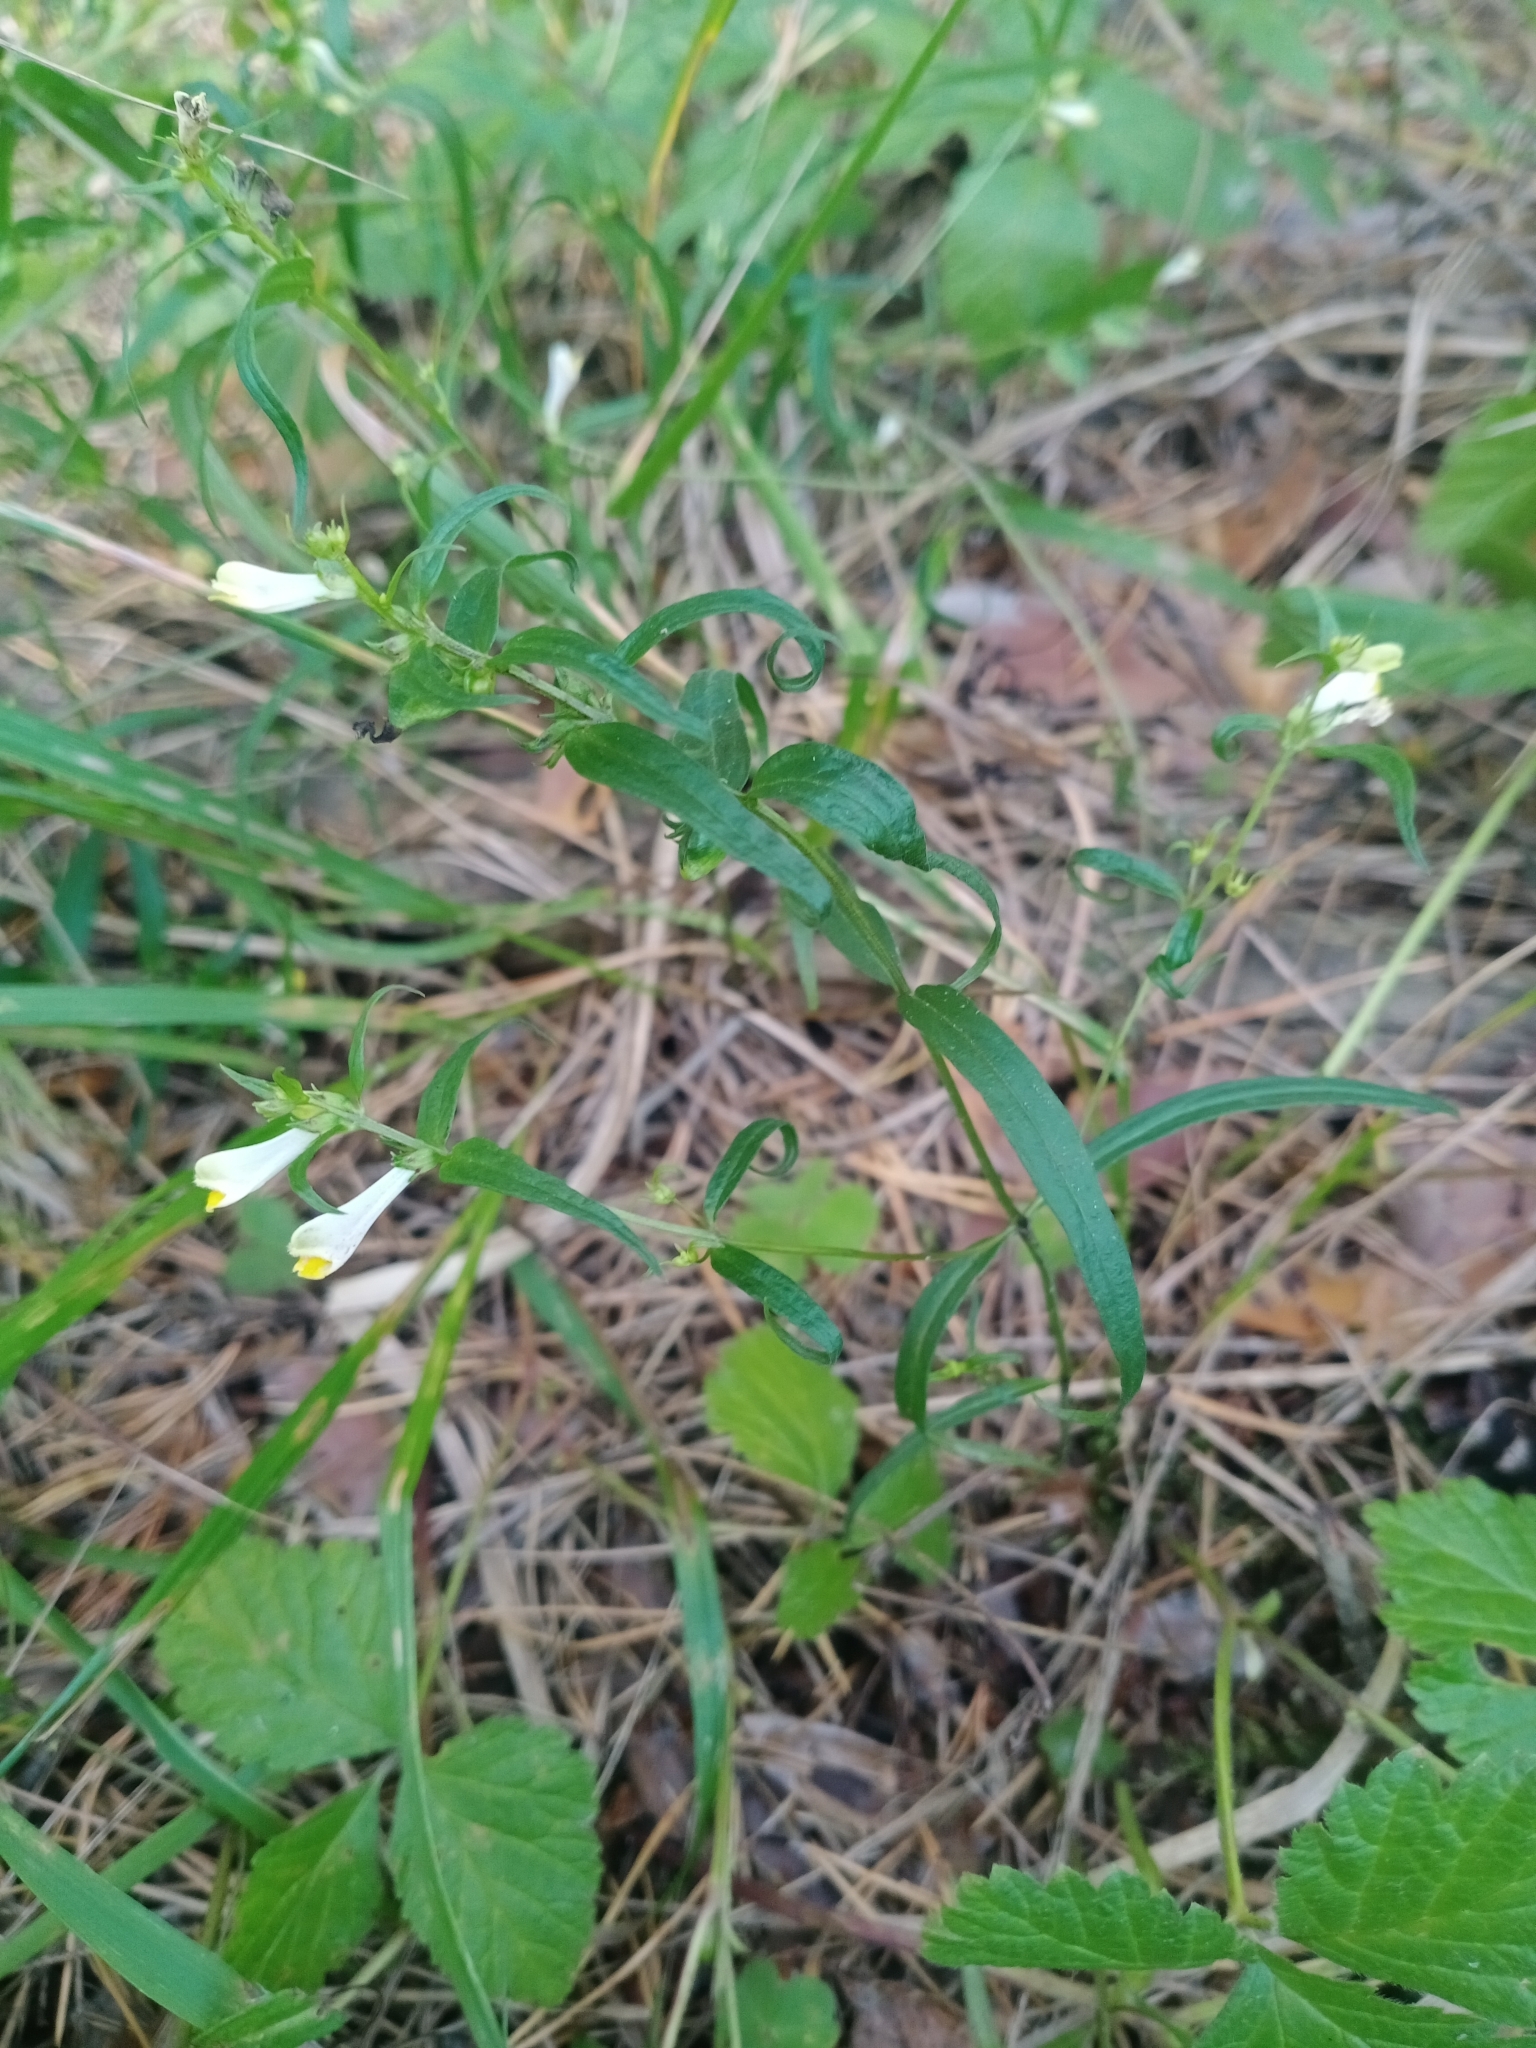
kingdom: Plantae
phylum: Tracheophyta
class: Magnoliopsida
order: Lamiales
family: Orobanchaceae
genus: Melampyrum
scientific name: Melampyrum pratense
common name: Common cow-wheat
